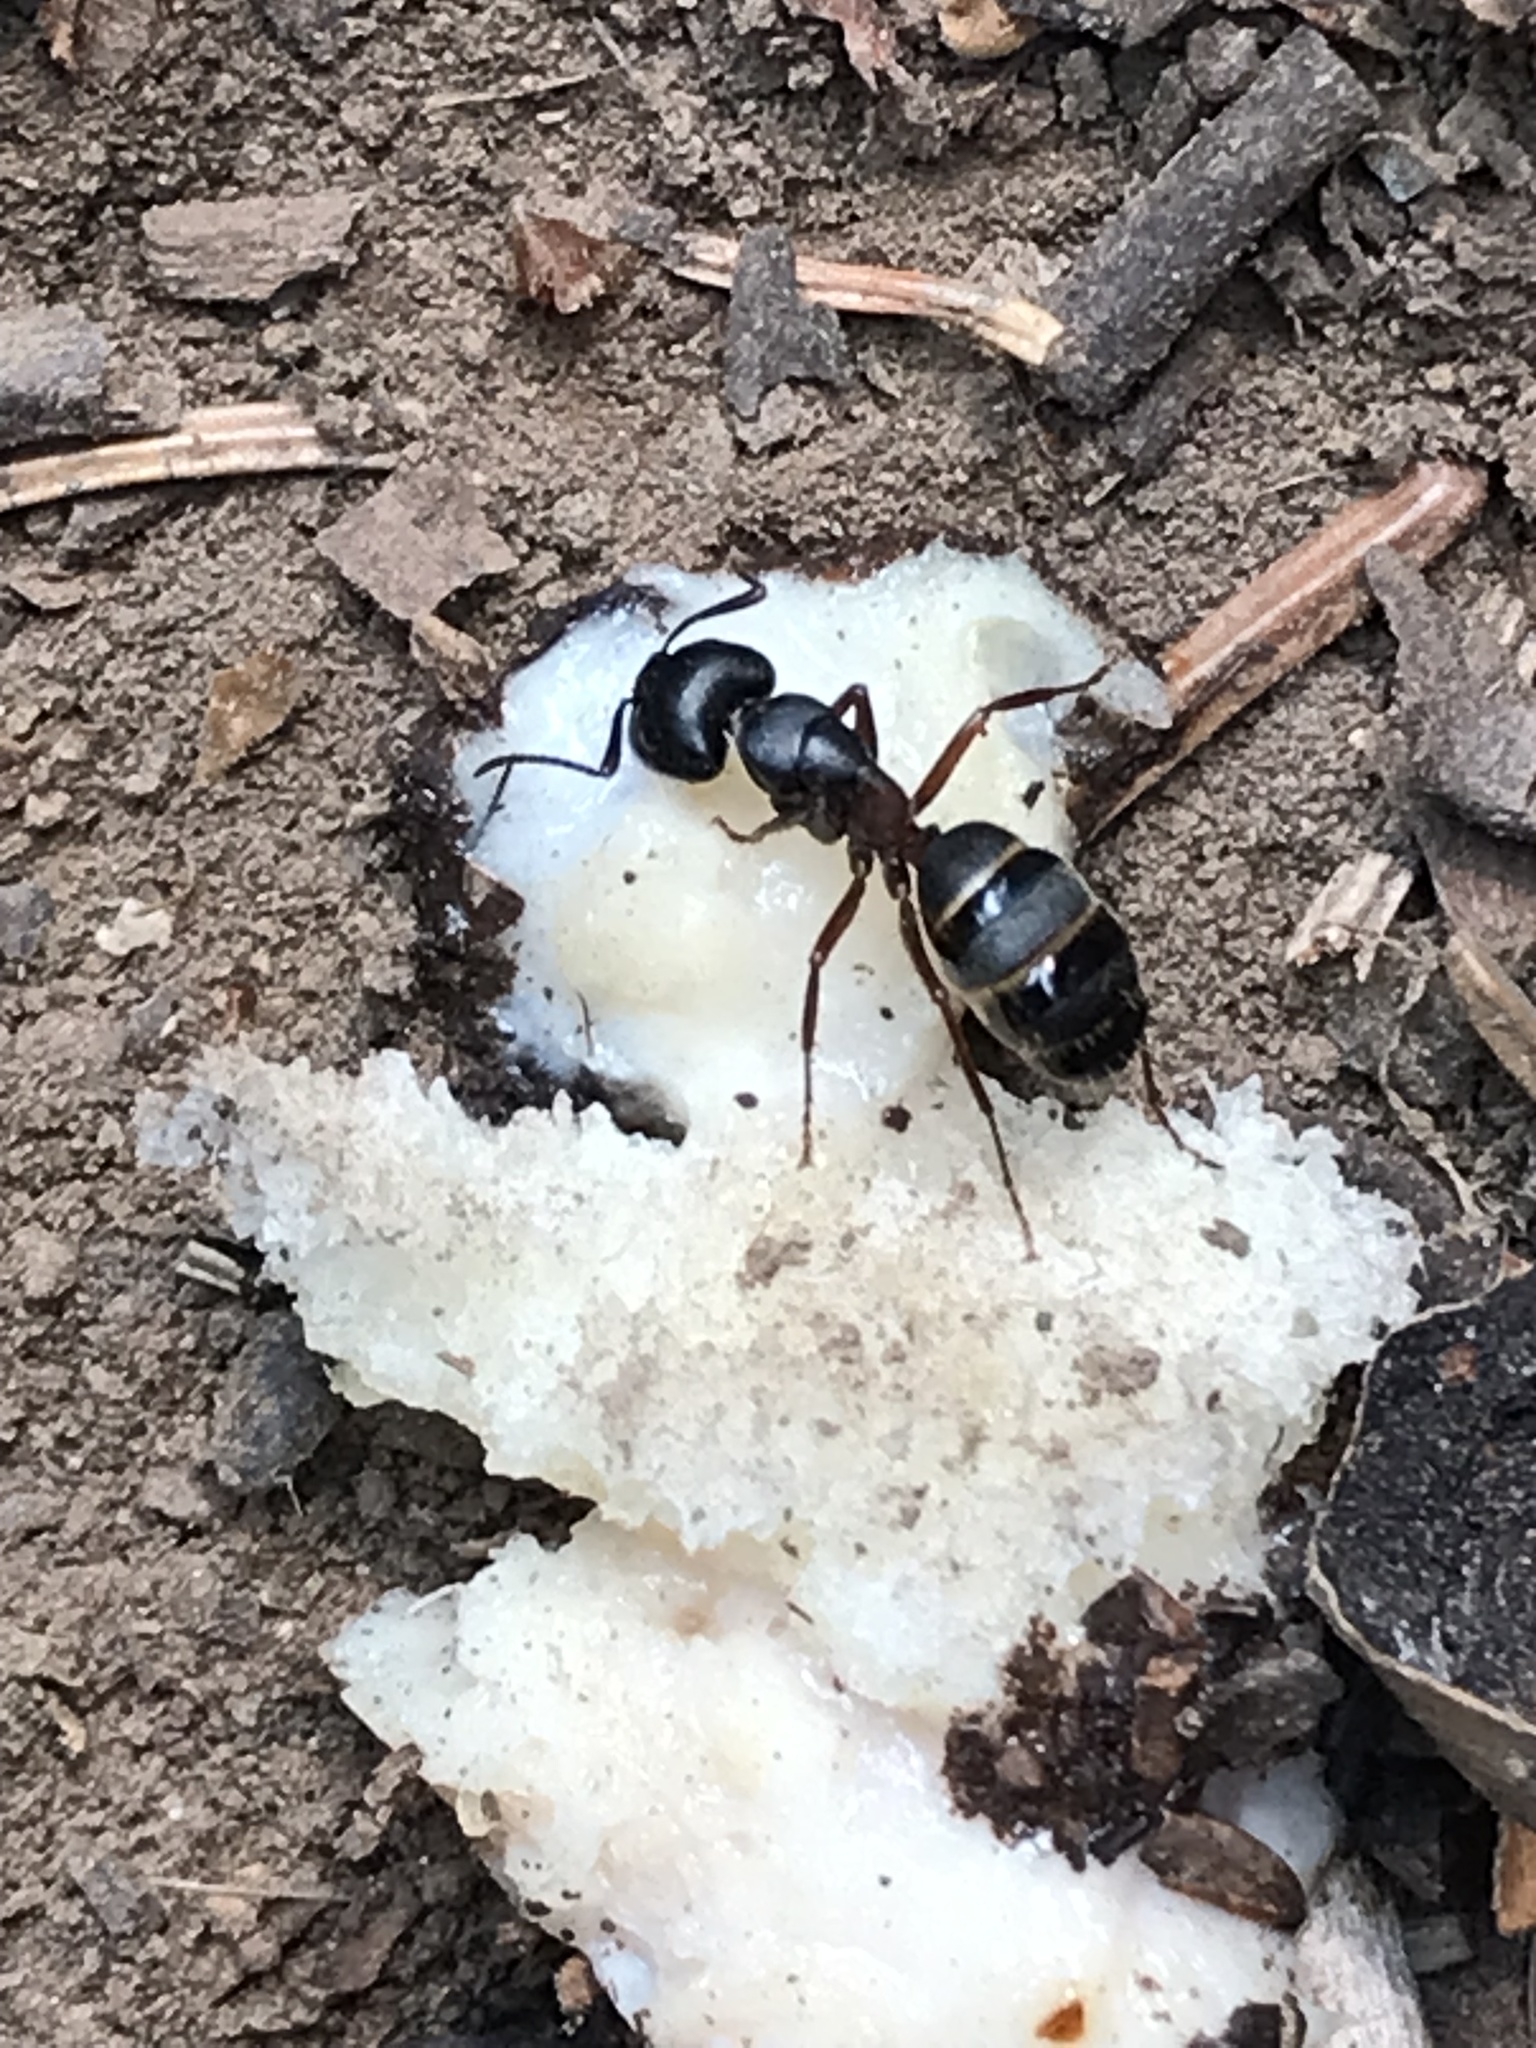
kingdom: Animalia
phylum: Arthropoda
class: Insecta
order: Hymenoptera
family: Formicidae
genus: Camponotus
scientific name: Camponotus herculeanus
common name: Hercules ant
